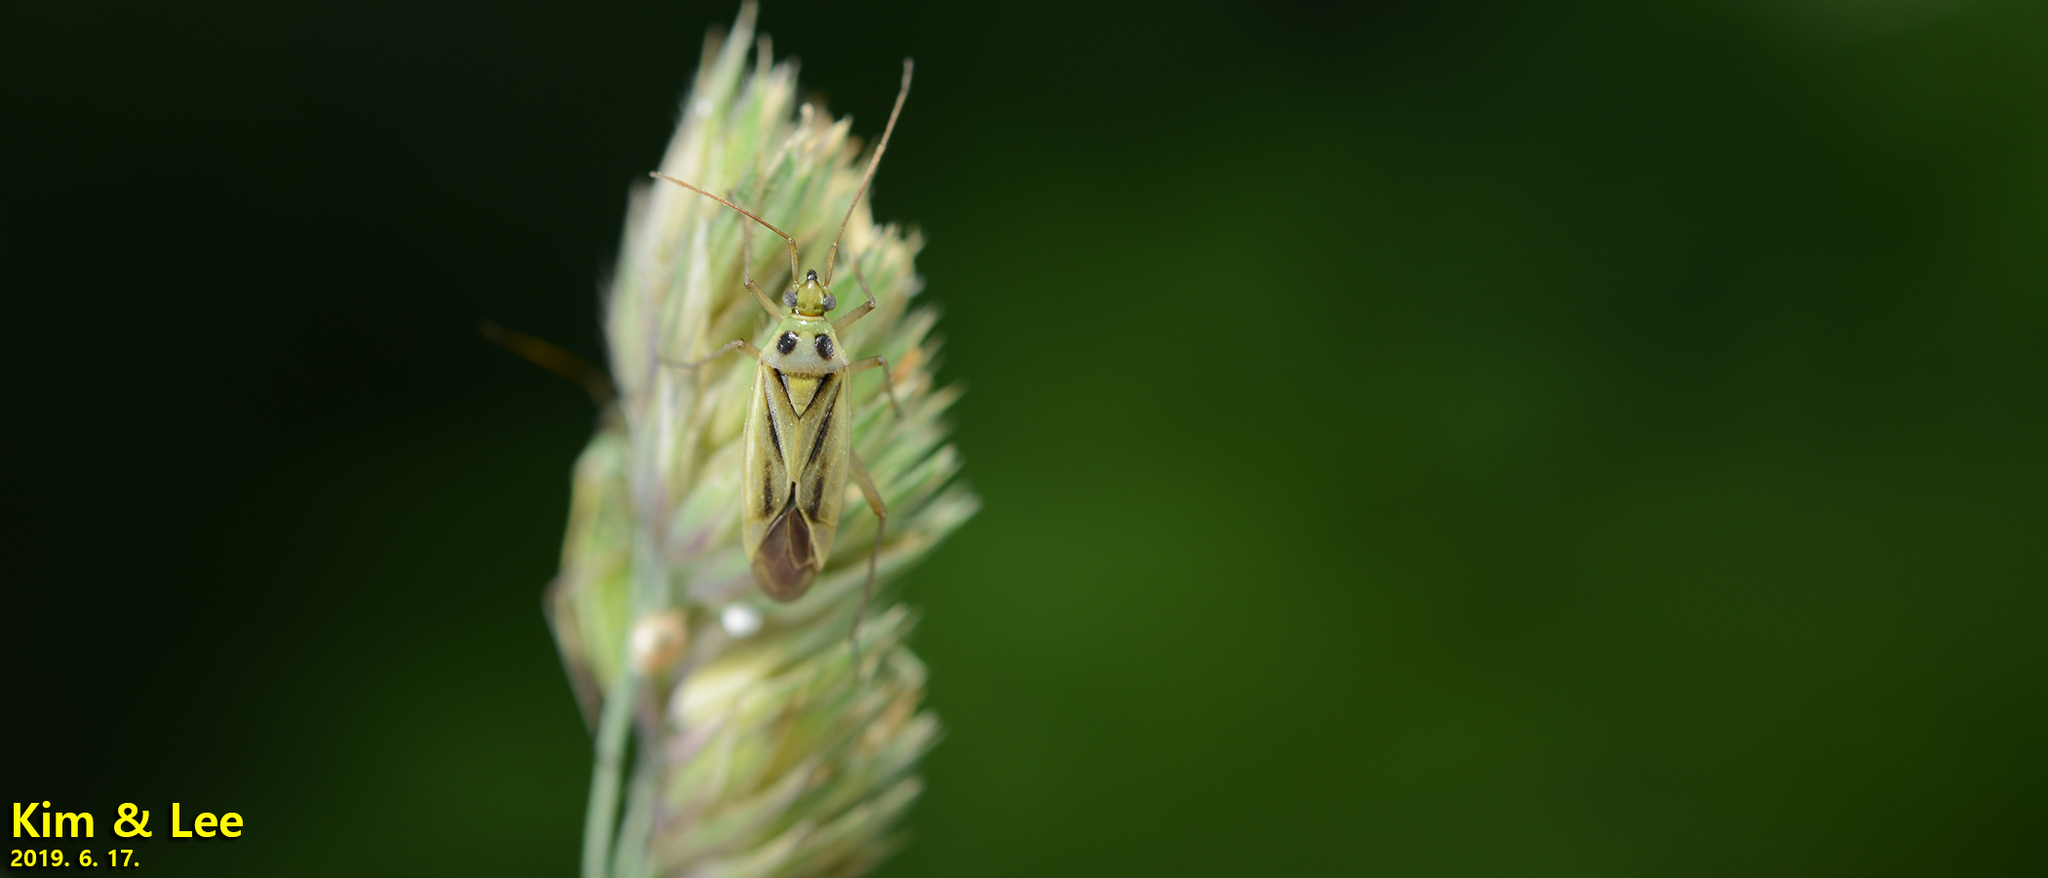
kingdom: Animalia
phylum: Arthropoda
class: Insecta
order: Hemiptera
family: Miridae
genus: Stenotus
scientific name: Stenotus binotatus
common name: Plant bug
